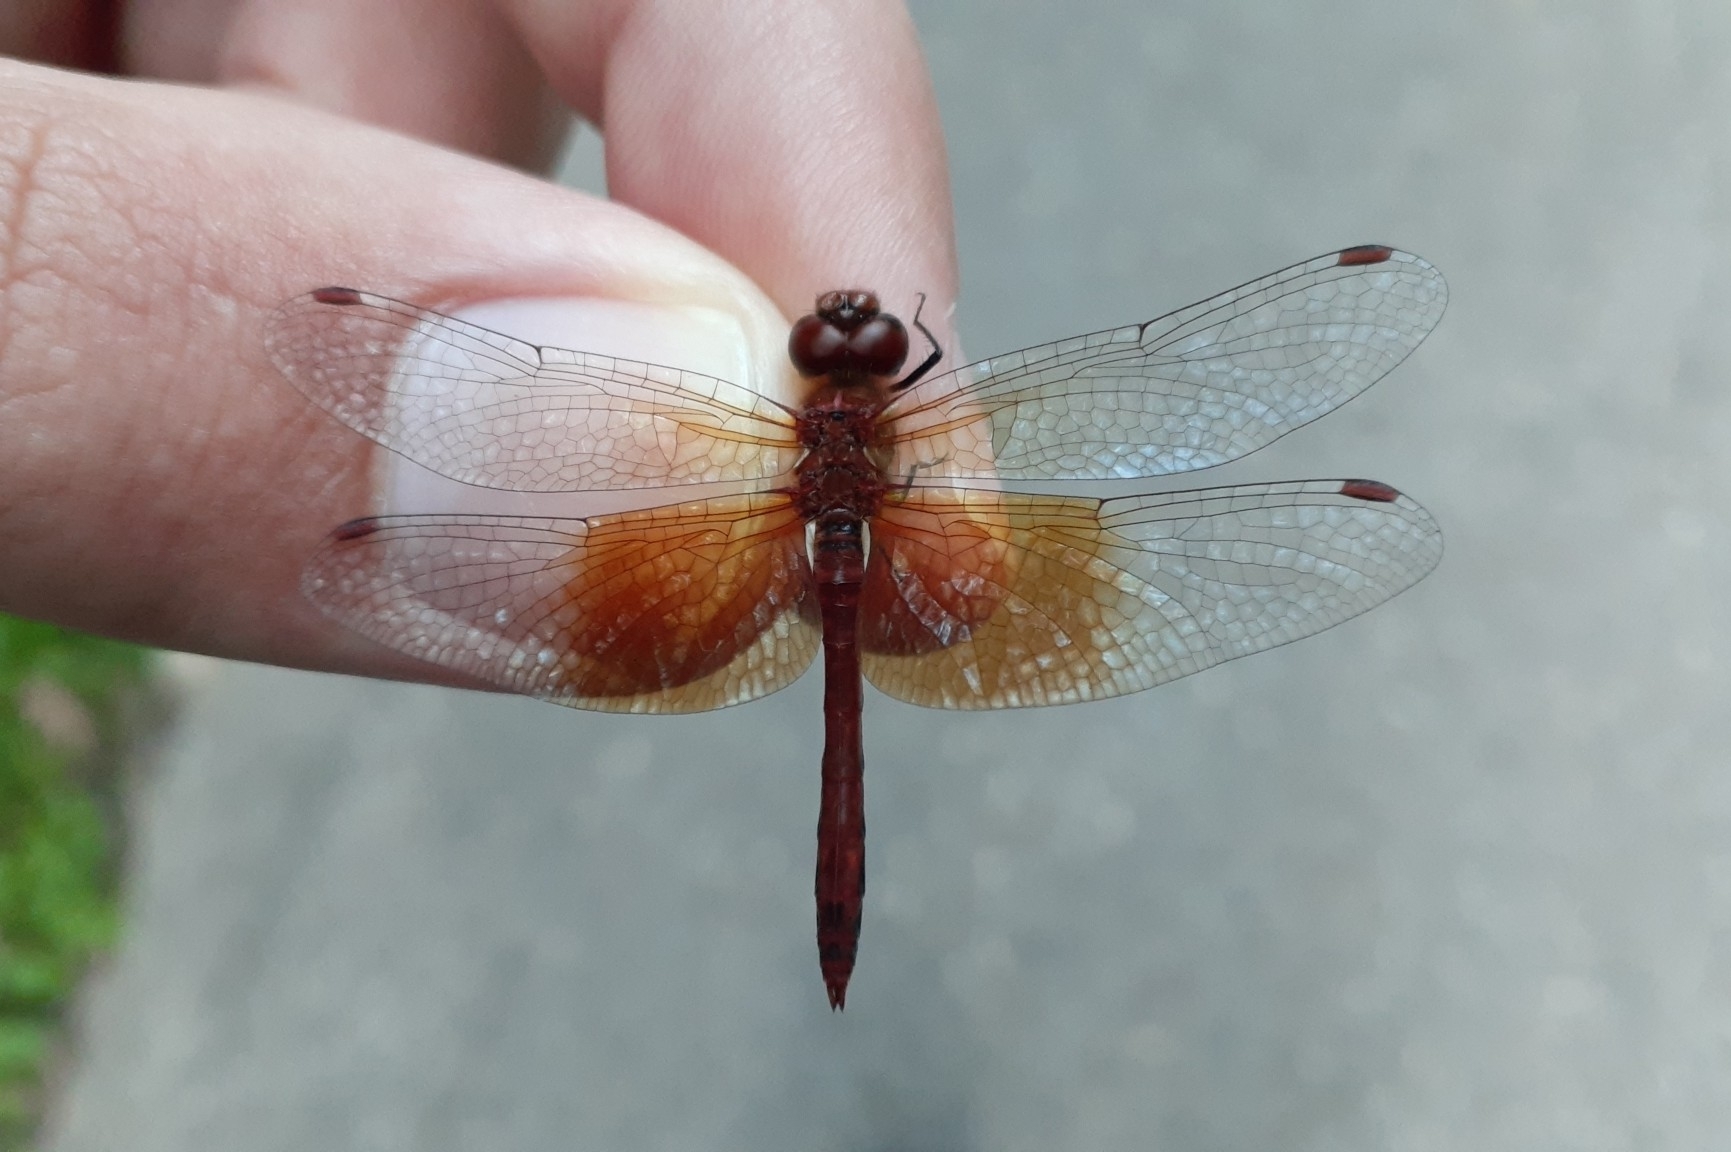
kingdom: Animalia
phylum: Arthropoda
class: Insecta
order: Odonata
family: Libellulidae
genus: Sympetrum
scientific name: Sympetrum semicinctum
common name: Band-winged meadowhawk
